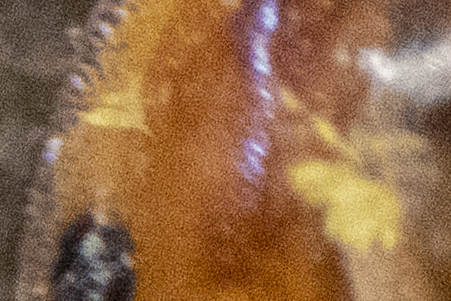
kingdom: Fungi
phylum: Ascomycota
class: Laboulbeniomycetes
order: Laboulbeniales
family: Laboulbeniaceae
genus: Hesperomyces
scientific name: Hesperomyces harmoniae
